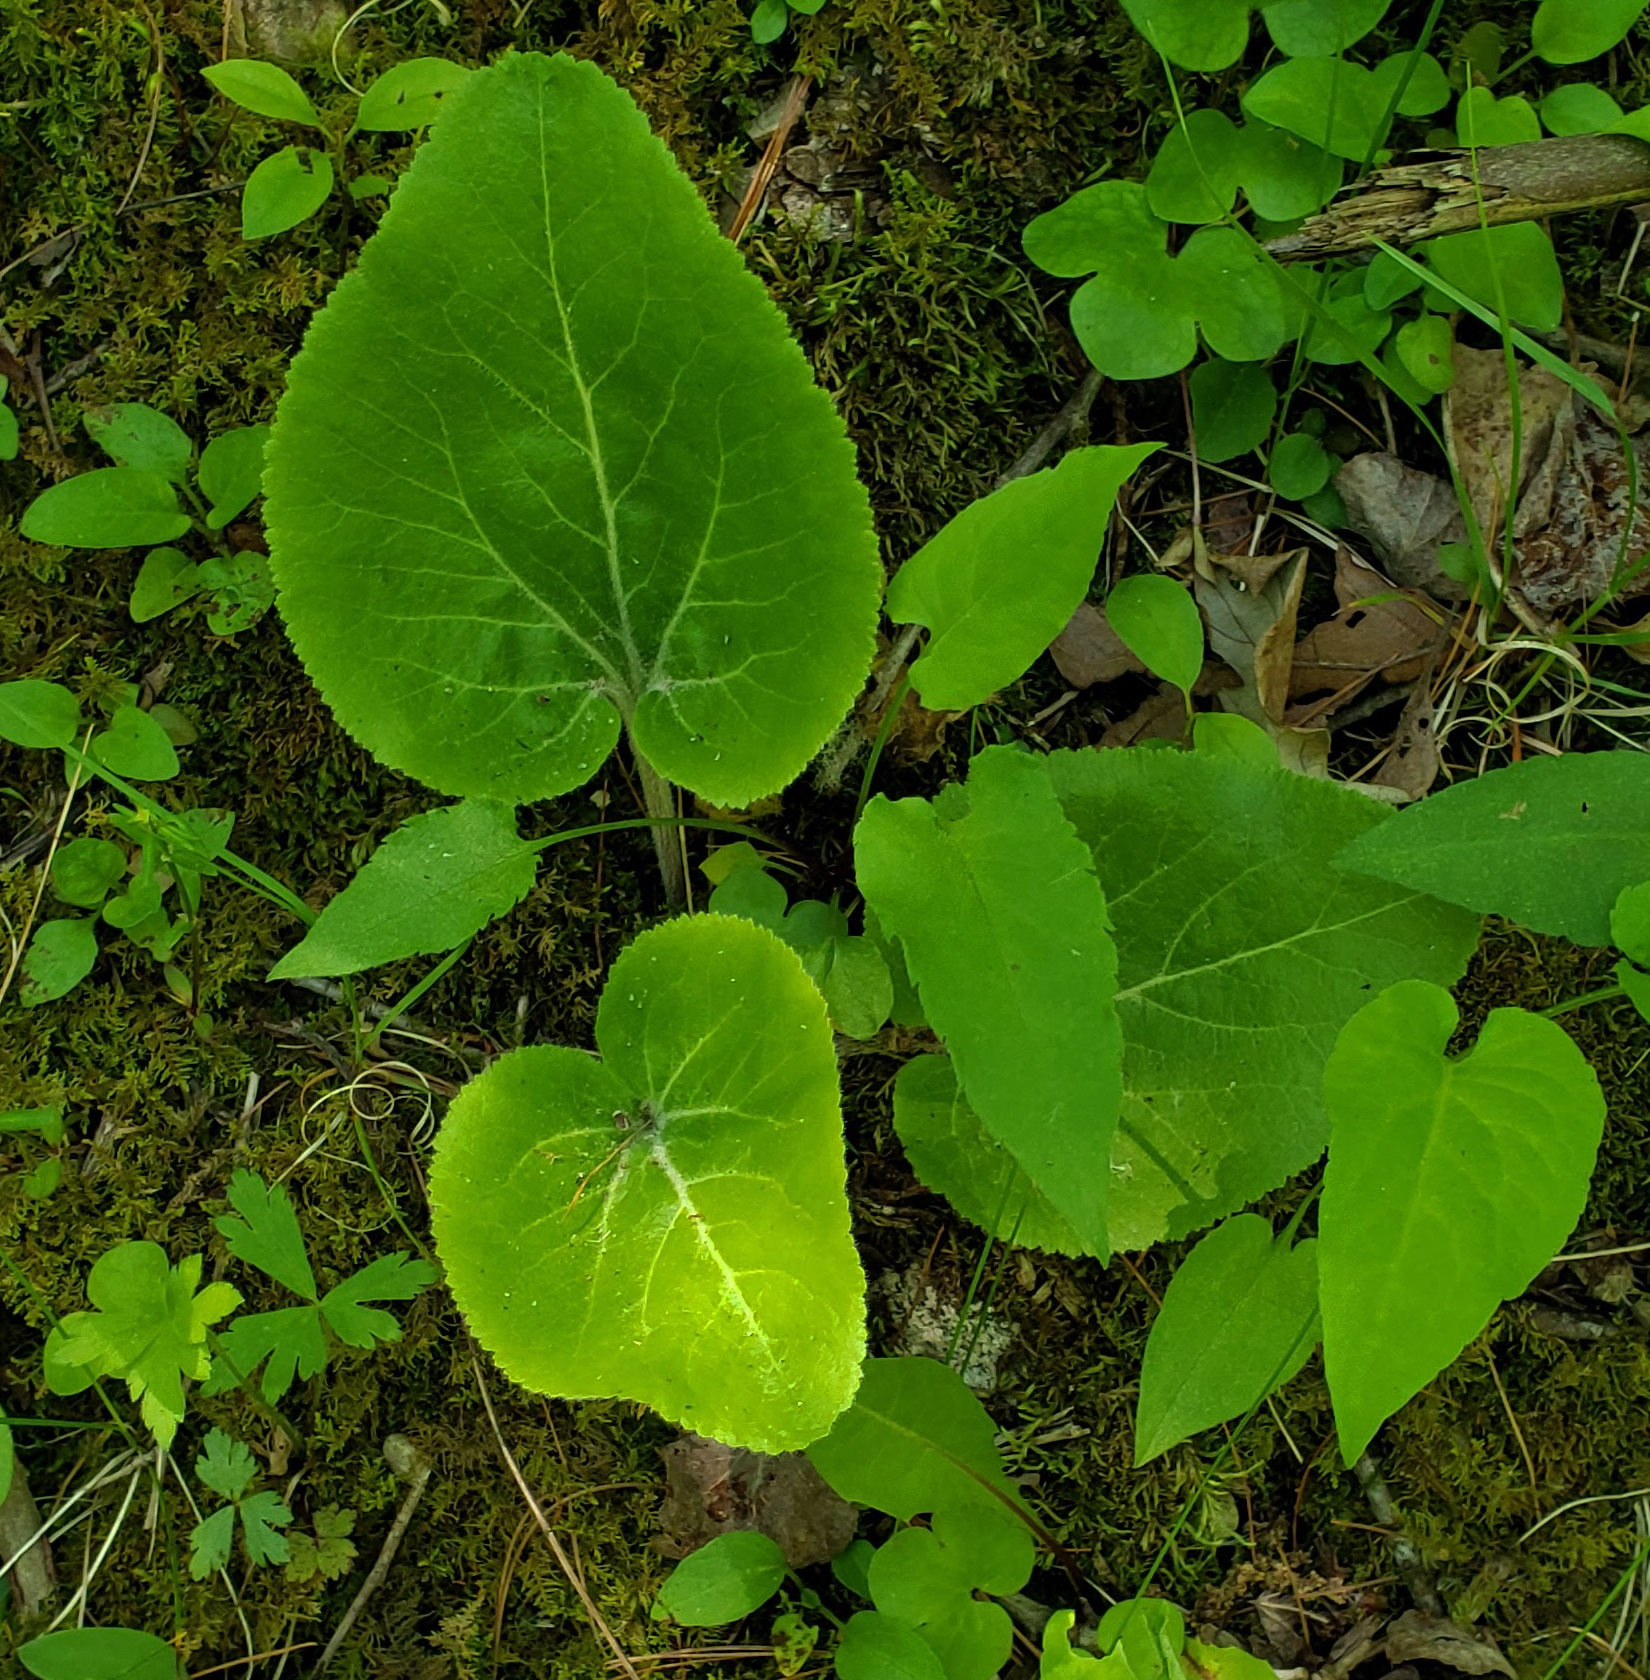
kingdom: Plantae
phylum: Tracheophyta
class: Magnoliopsida
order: Lamiales
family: Plantaginaceae
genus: Synthyris
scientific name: Synthyris bullii
